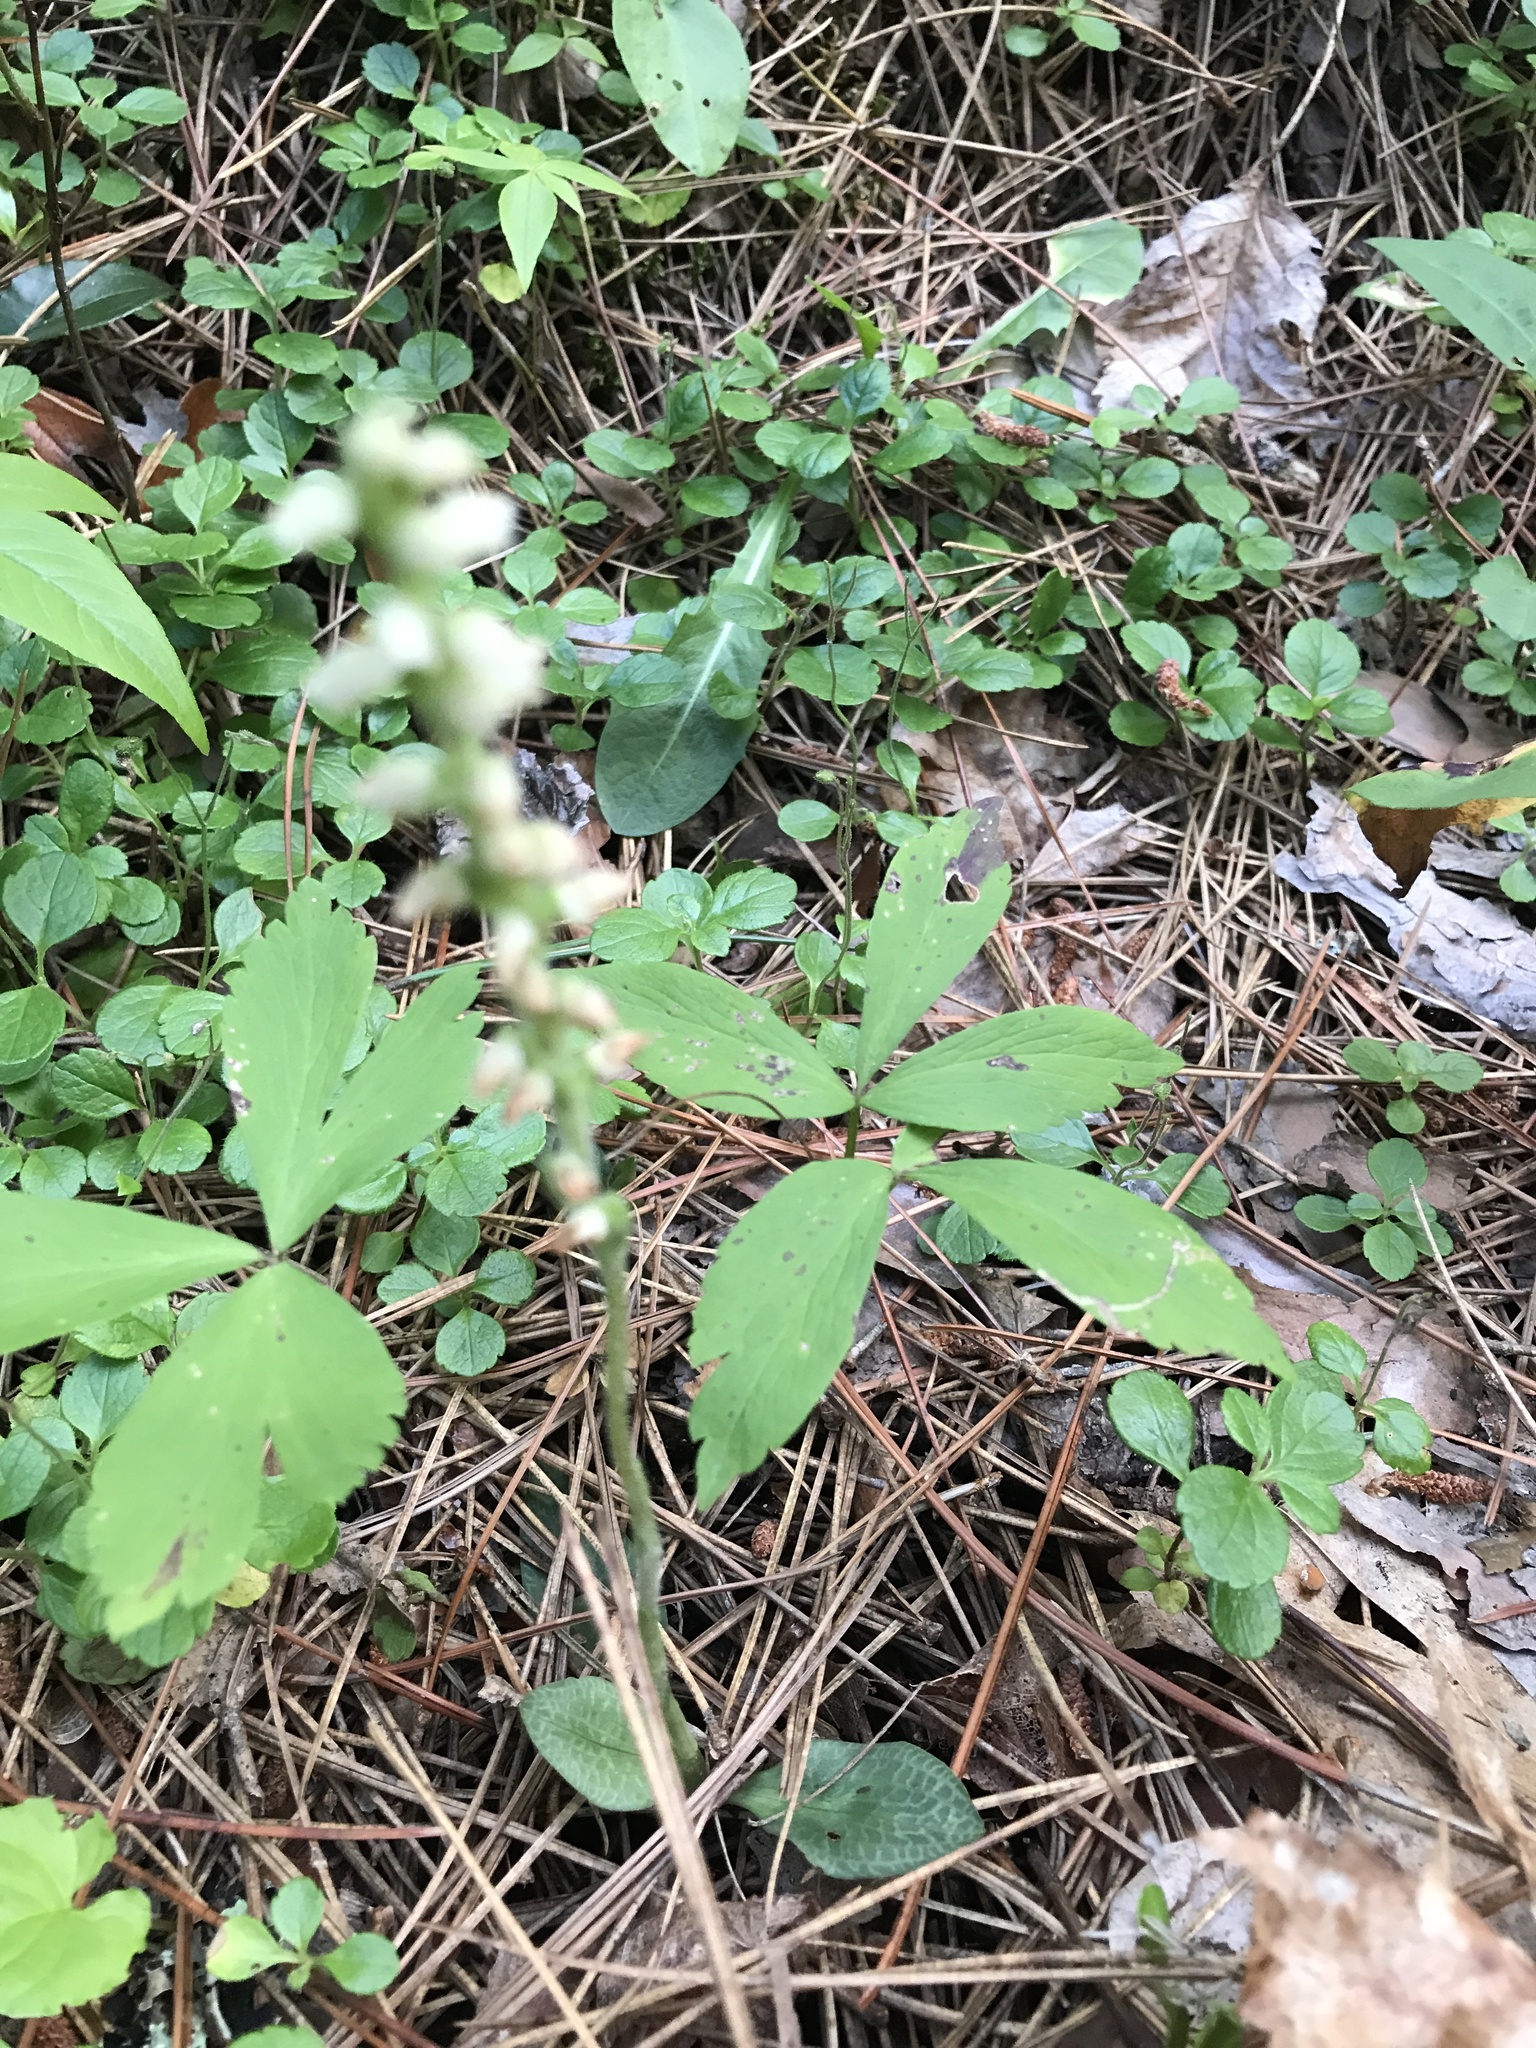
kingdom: Plantae
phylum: Tracheophyta
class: Liliopsida
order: Asparagales
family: Orchidaceae
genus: Goodyera
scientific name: Goodyera tesselata
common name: Checkered rattlesnake-plantain
